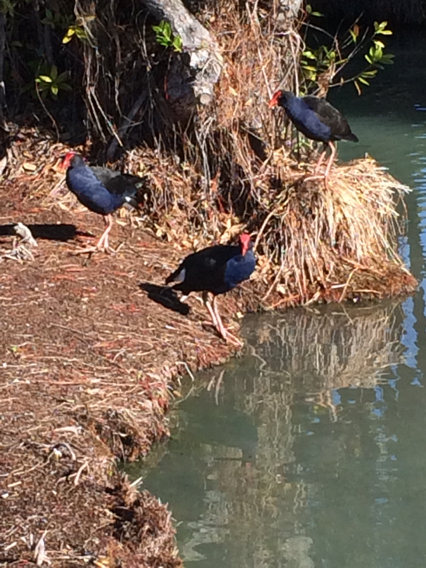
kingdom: Animalia
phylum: Chordata
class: Aves
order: Gruiformes
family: Rallidae
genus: Porphyrio
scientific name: Porphyrio melanotus
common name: Australasian swamphen
